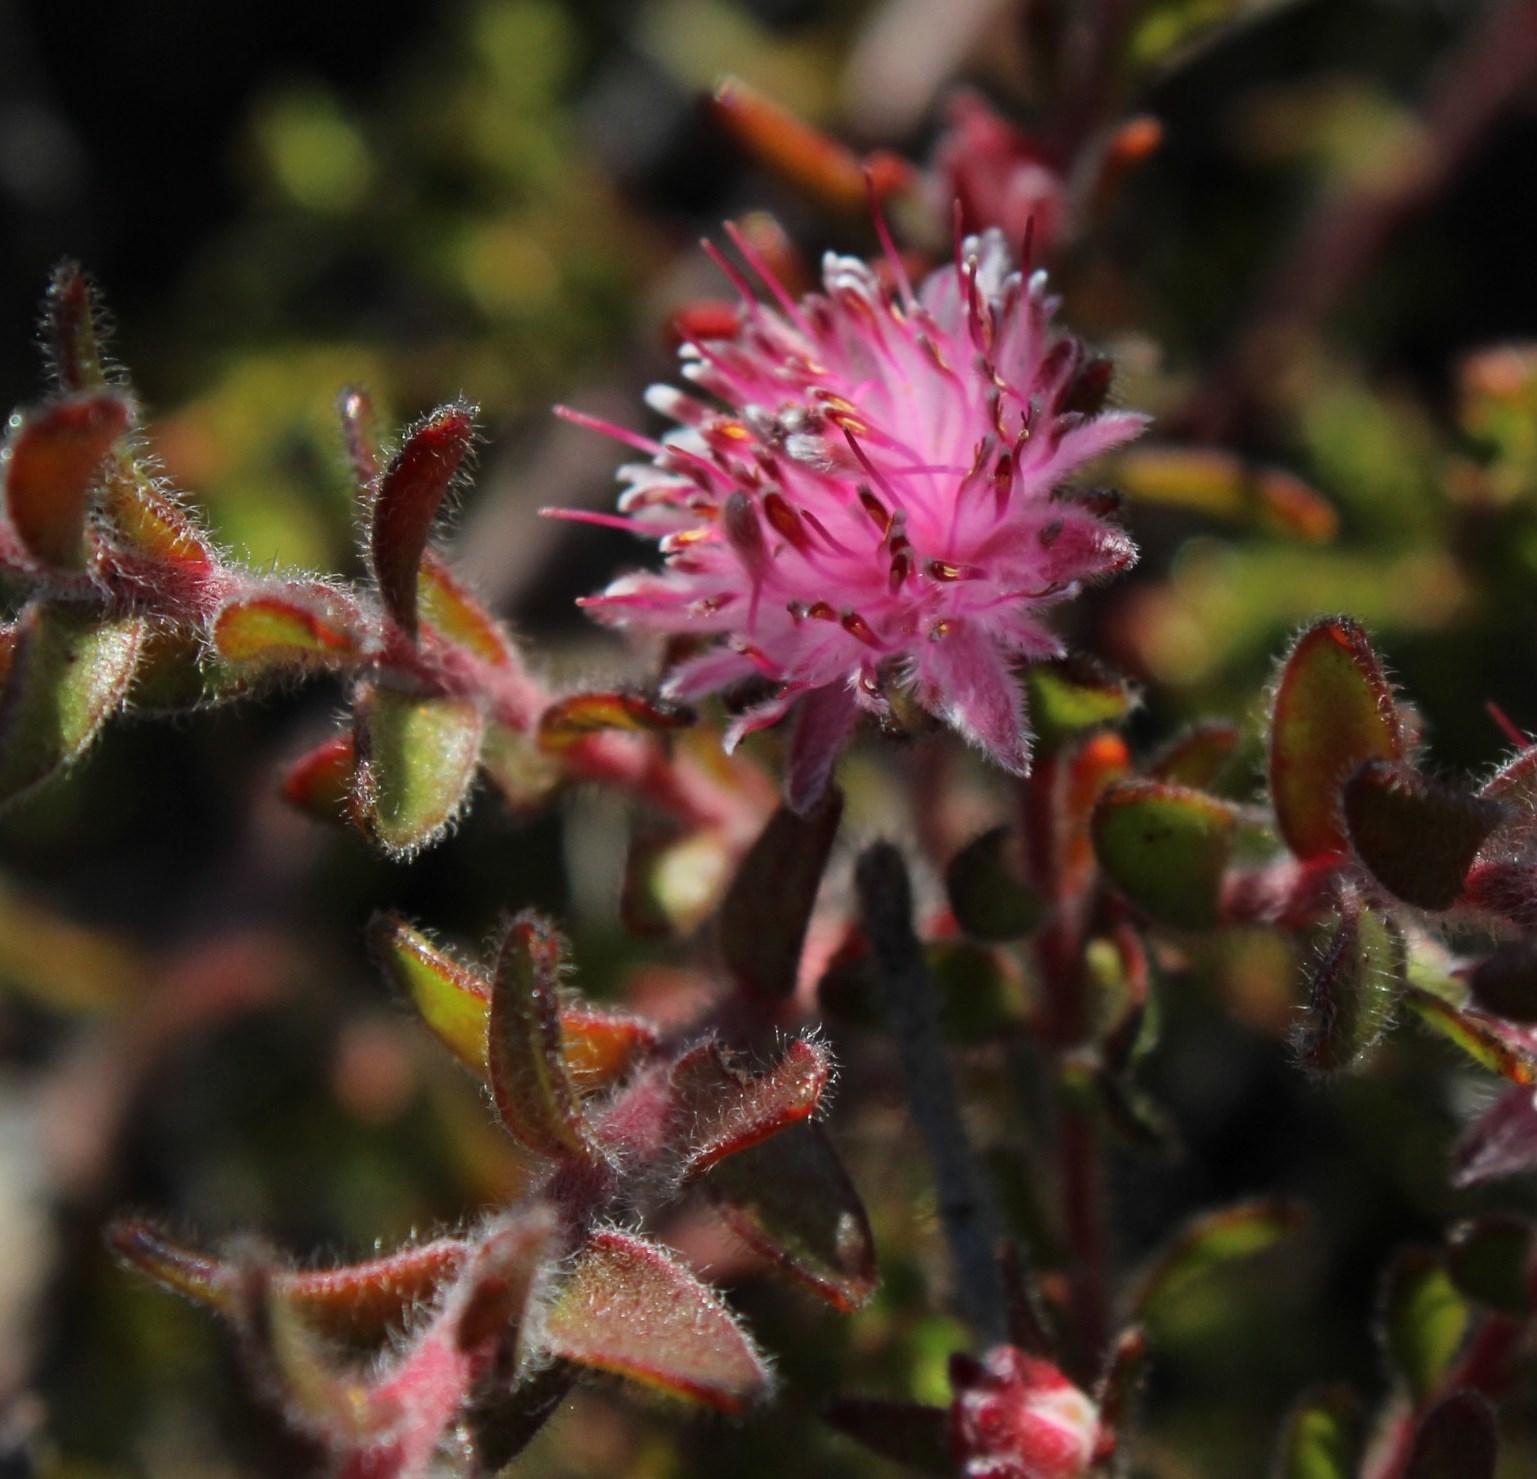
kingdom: Plantae
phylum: Tracheophyta
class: Magnoliopsida
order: Proteales
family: Proteaceae
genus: Diastella
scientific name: Diastella divaricata
